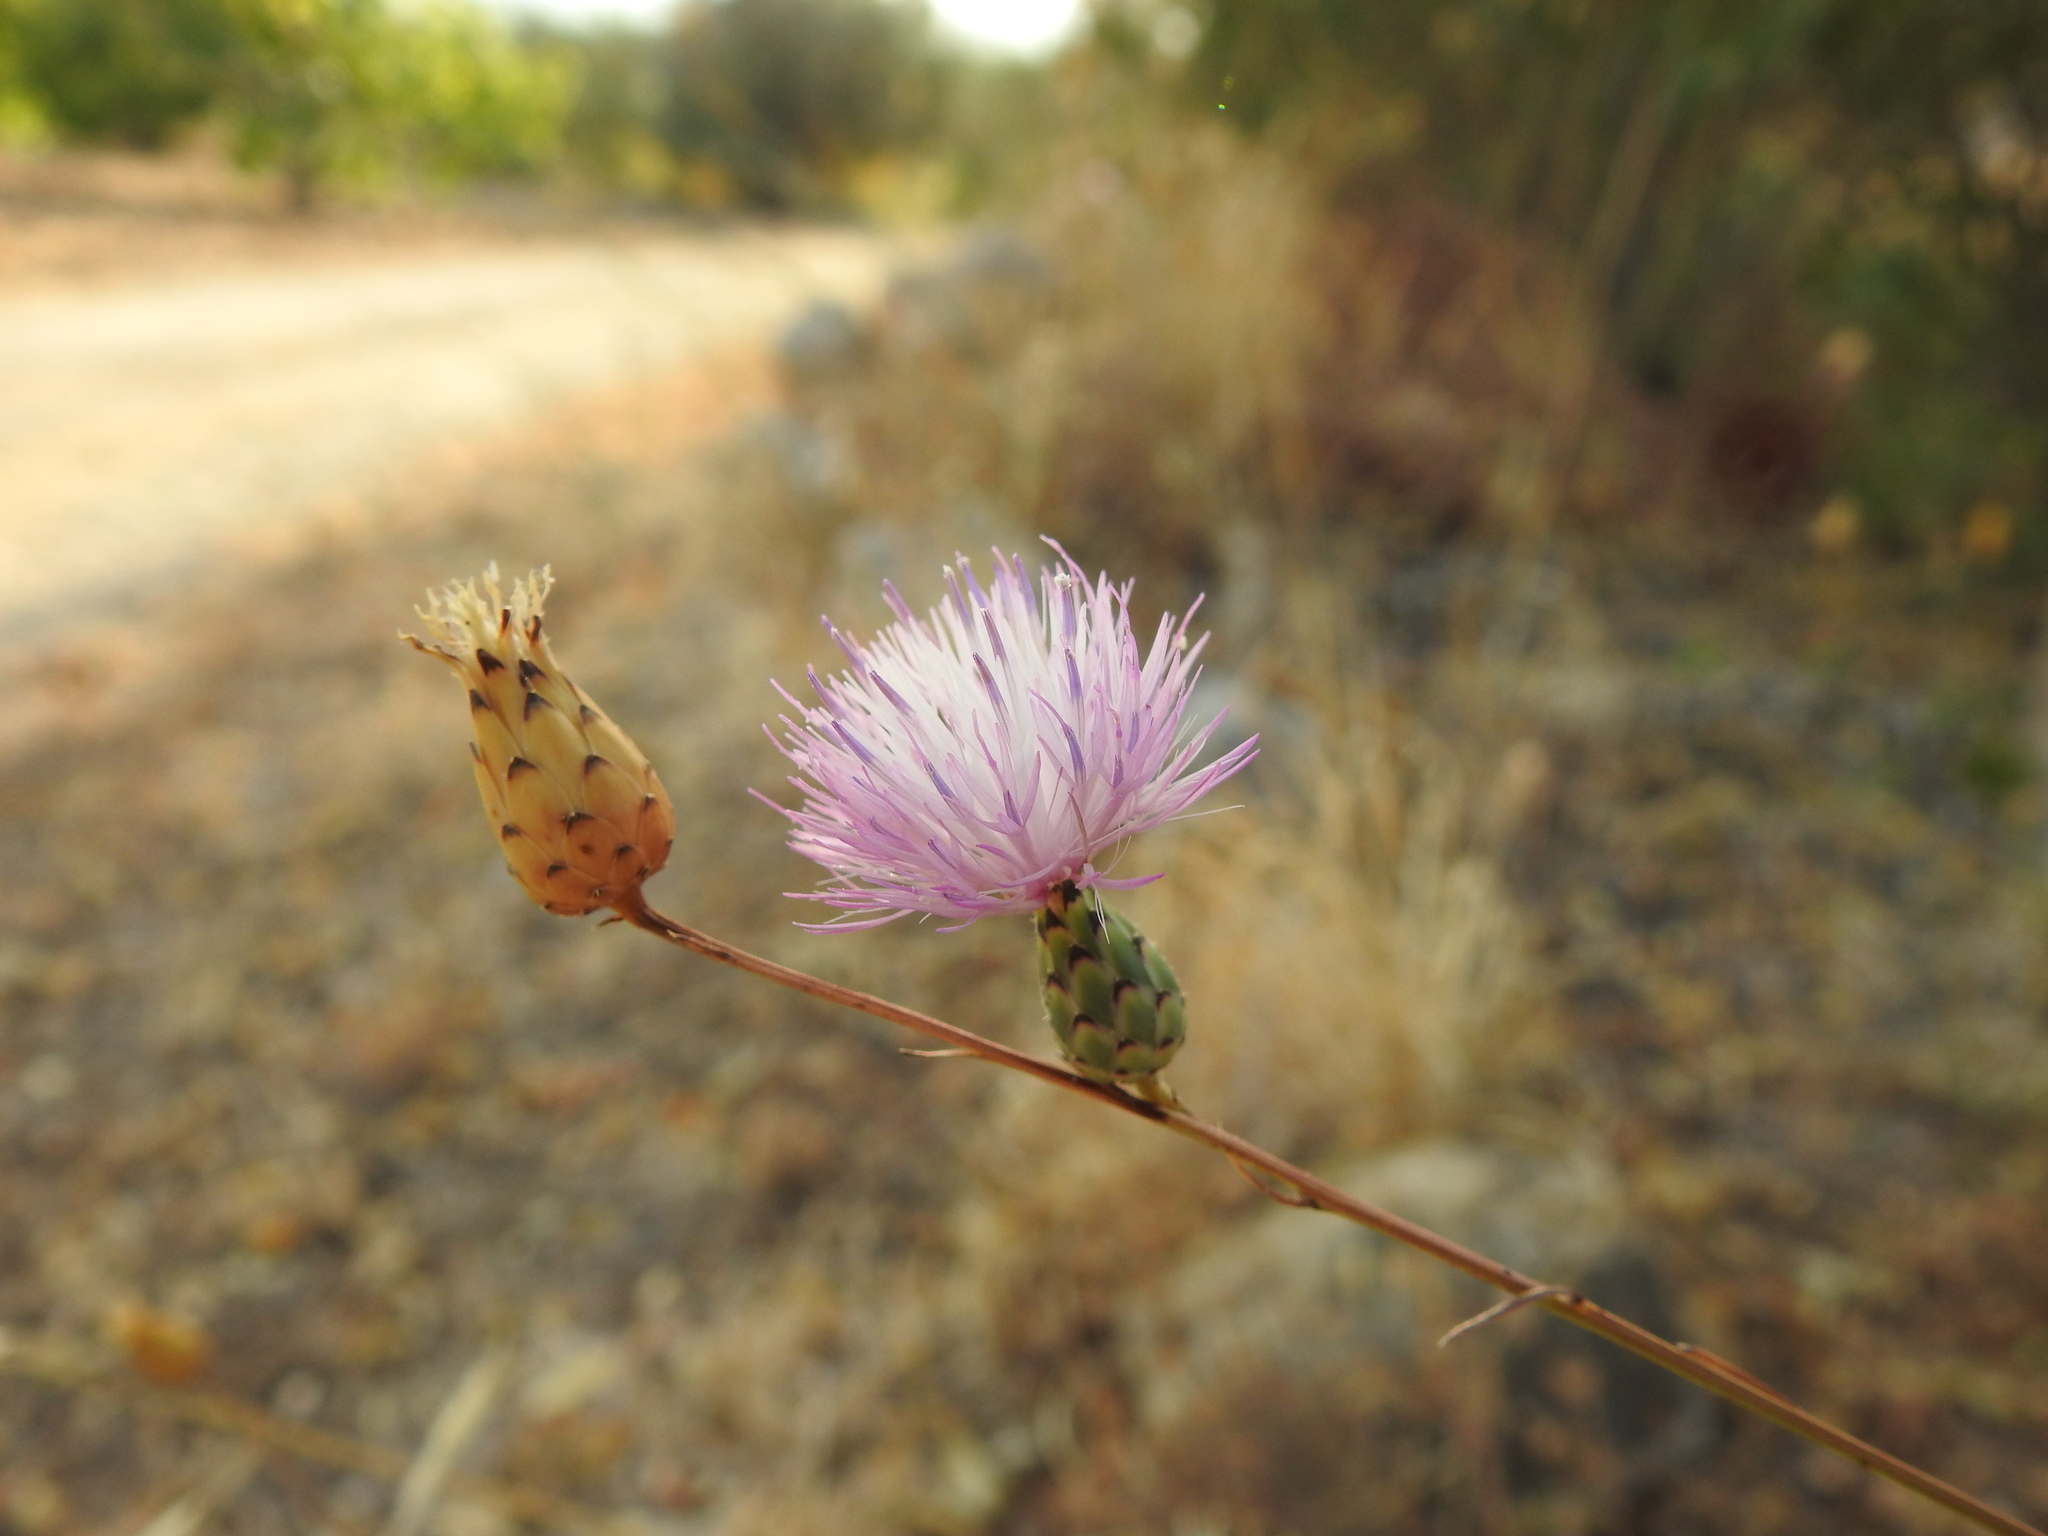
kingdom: Plantae
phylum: Tracheophyta
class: Magnoliopsida
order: Asterales
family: Asteraceae
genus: Mantisalca
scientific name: Mantisalca salmantica
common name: Dagger flower
